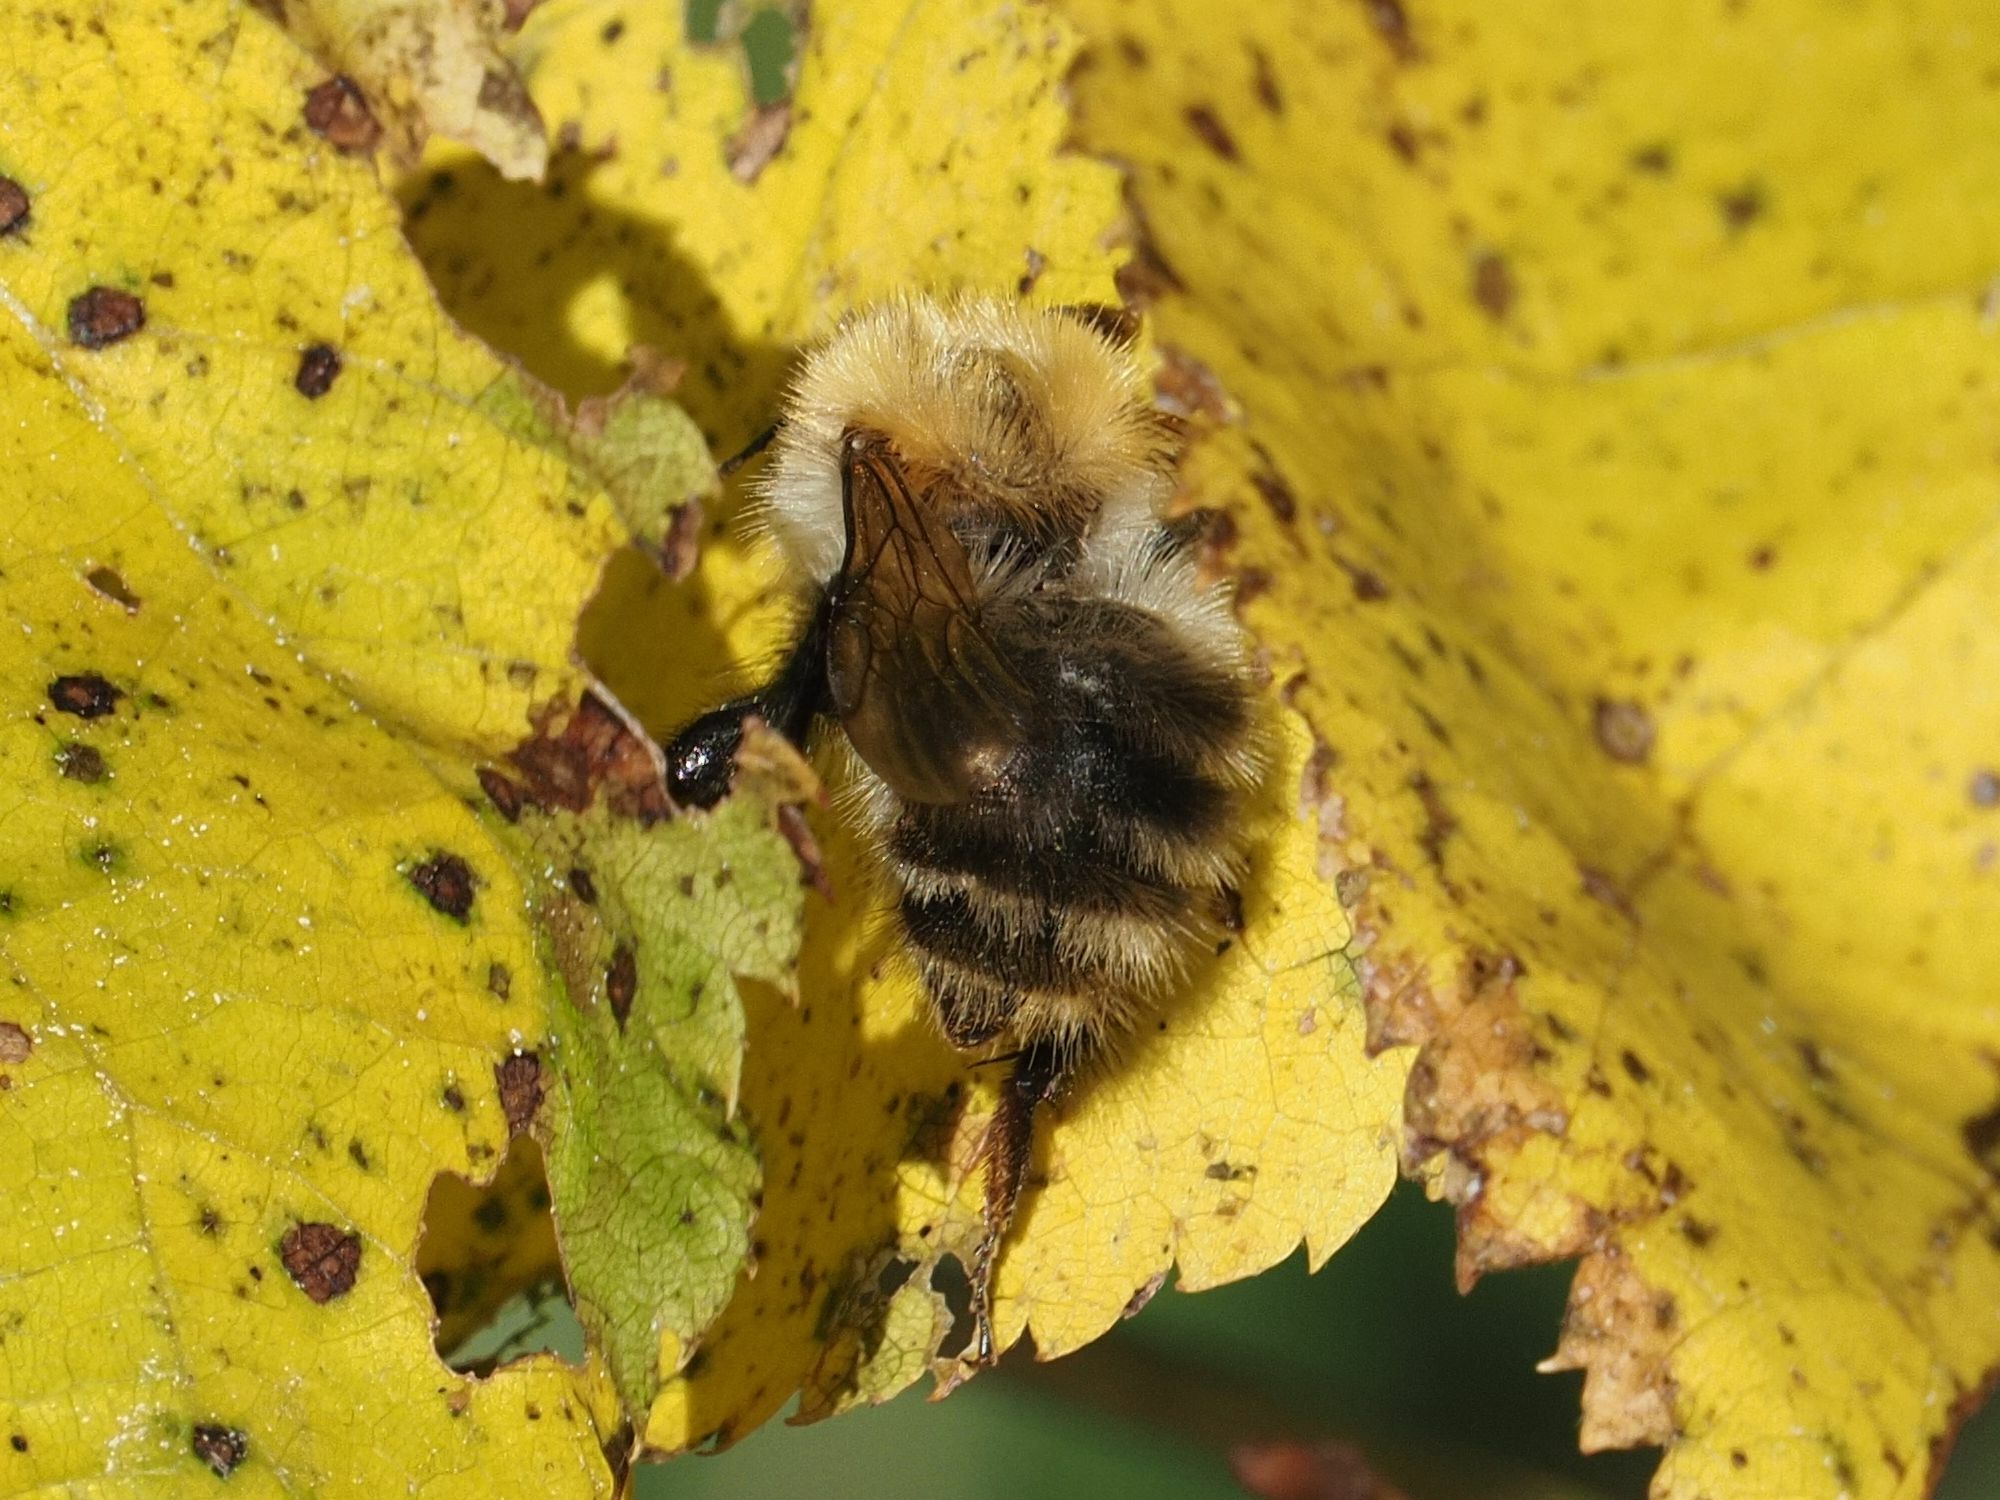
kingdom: Animalia
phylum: Arthropoda
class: Insecta
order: Hymenoptera
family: Apidae
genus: Bombus
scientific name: Bombus pascuorum
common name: Common carder bee
